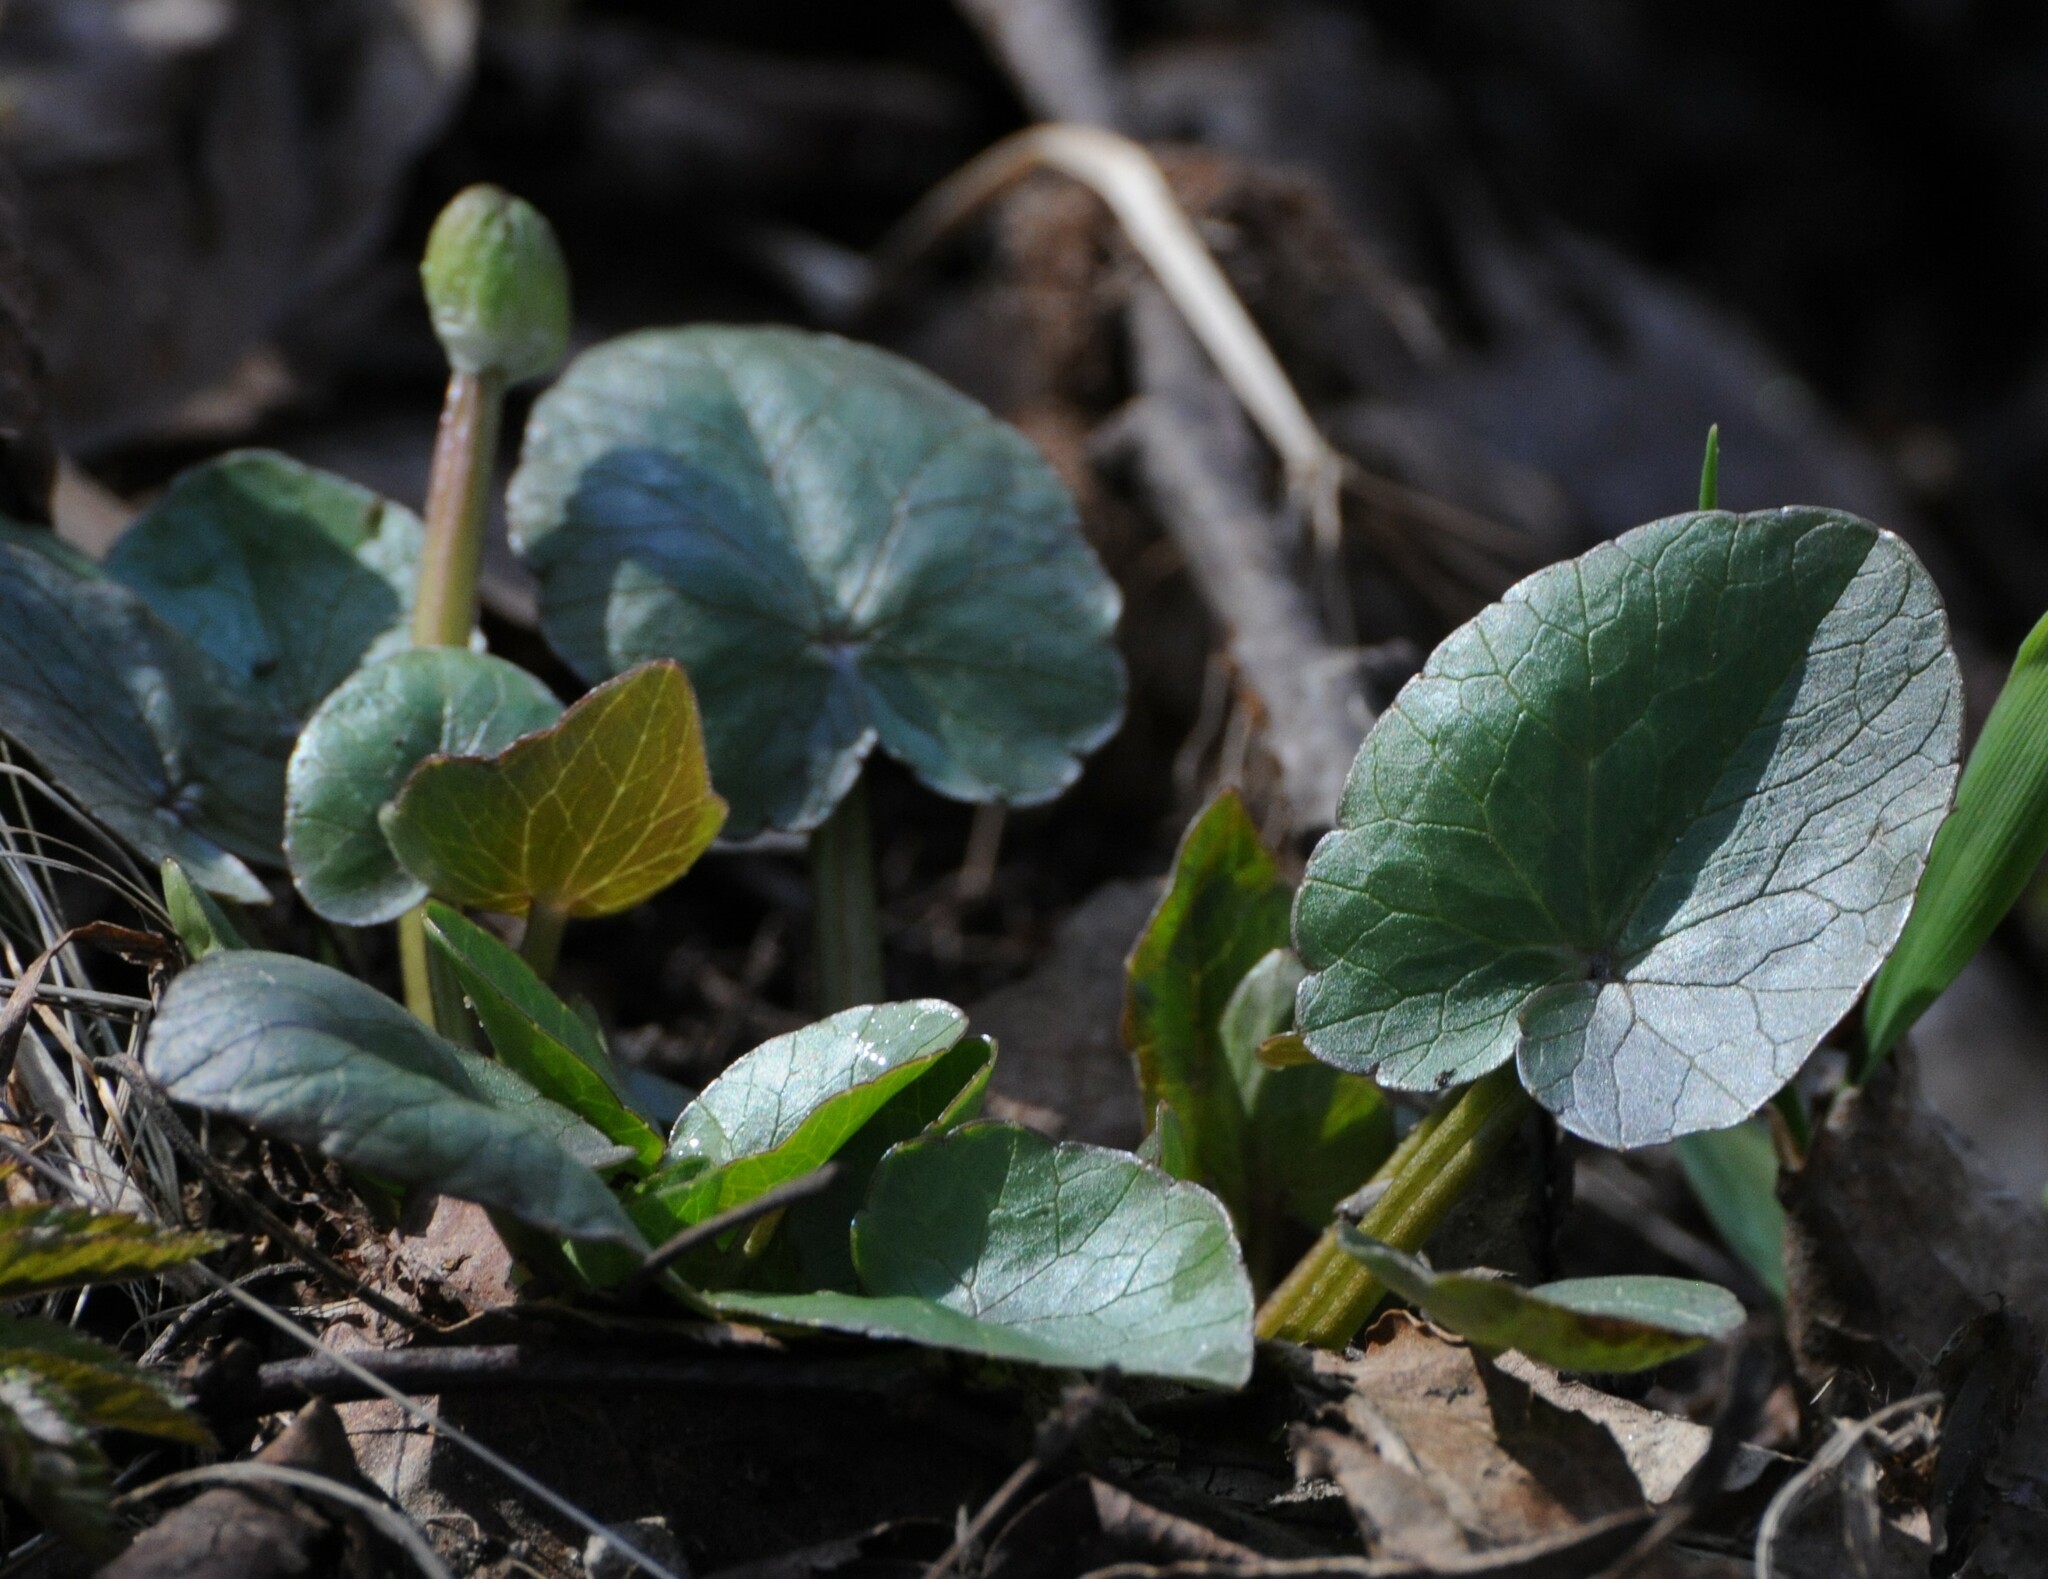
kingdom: Plantae
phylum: Tracheophyta
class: Magnoliopsida
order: Ranunculales
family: Ranunculaceae
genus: Ficaria
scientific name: Ficaria verna
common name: Lesser celandine
